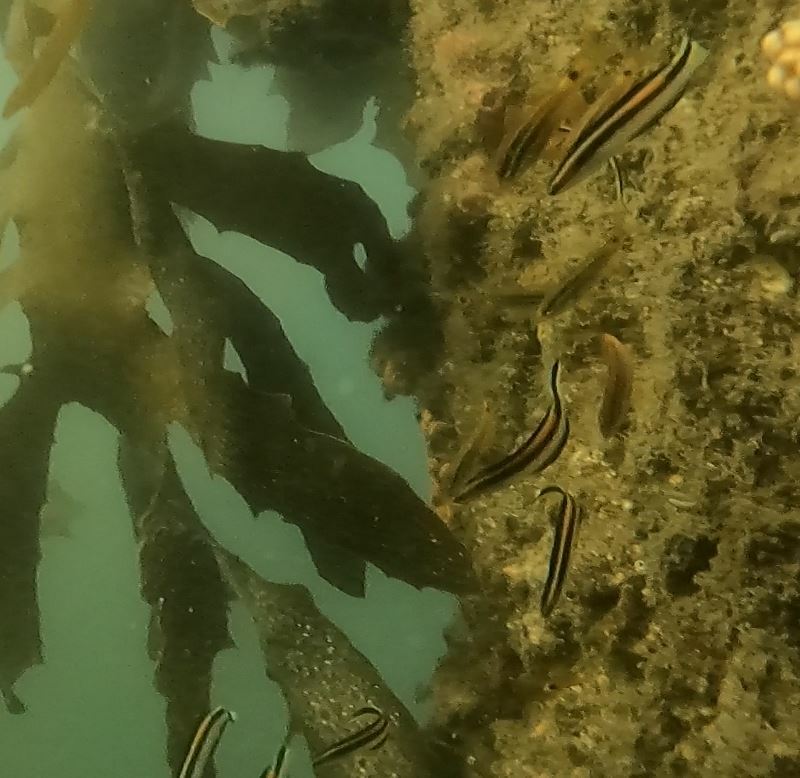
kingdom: Animalia
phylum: Chordata
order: Perciformes
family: Plesiopidae
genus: Trachinops
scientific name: Trachinops taeniatus
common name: Eastern hulafish
